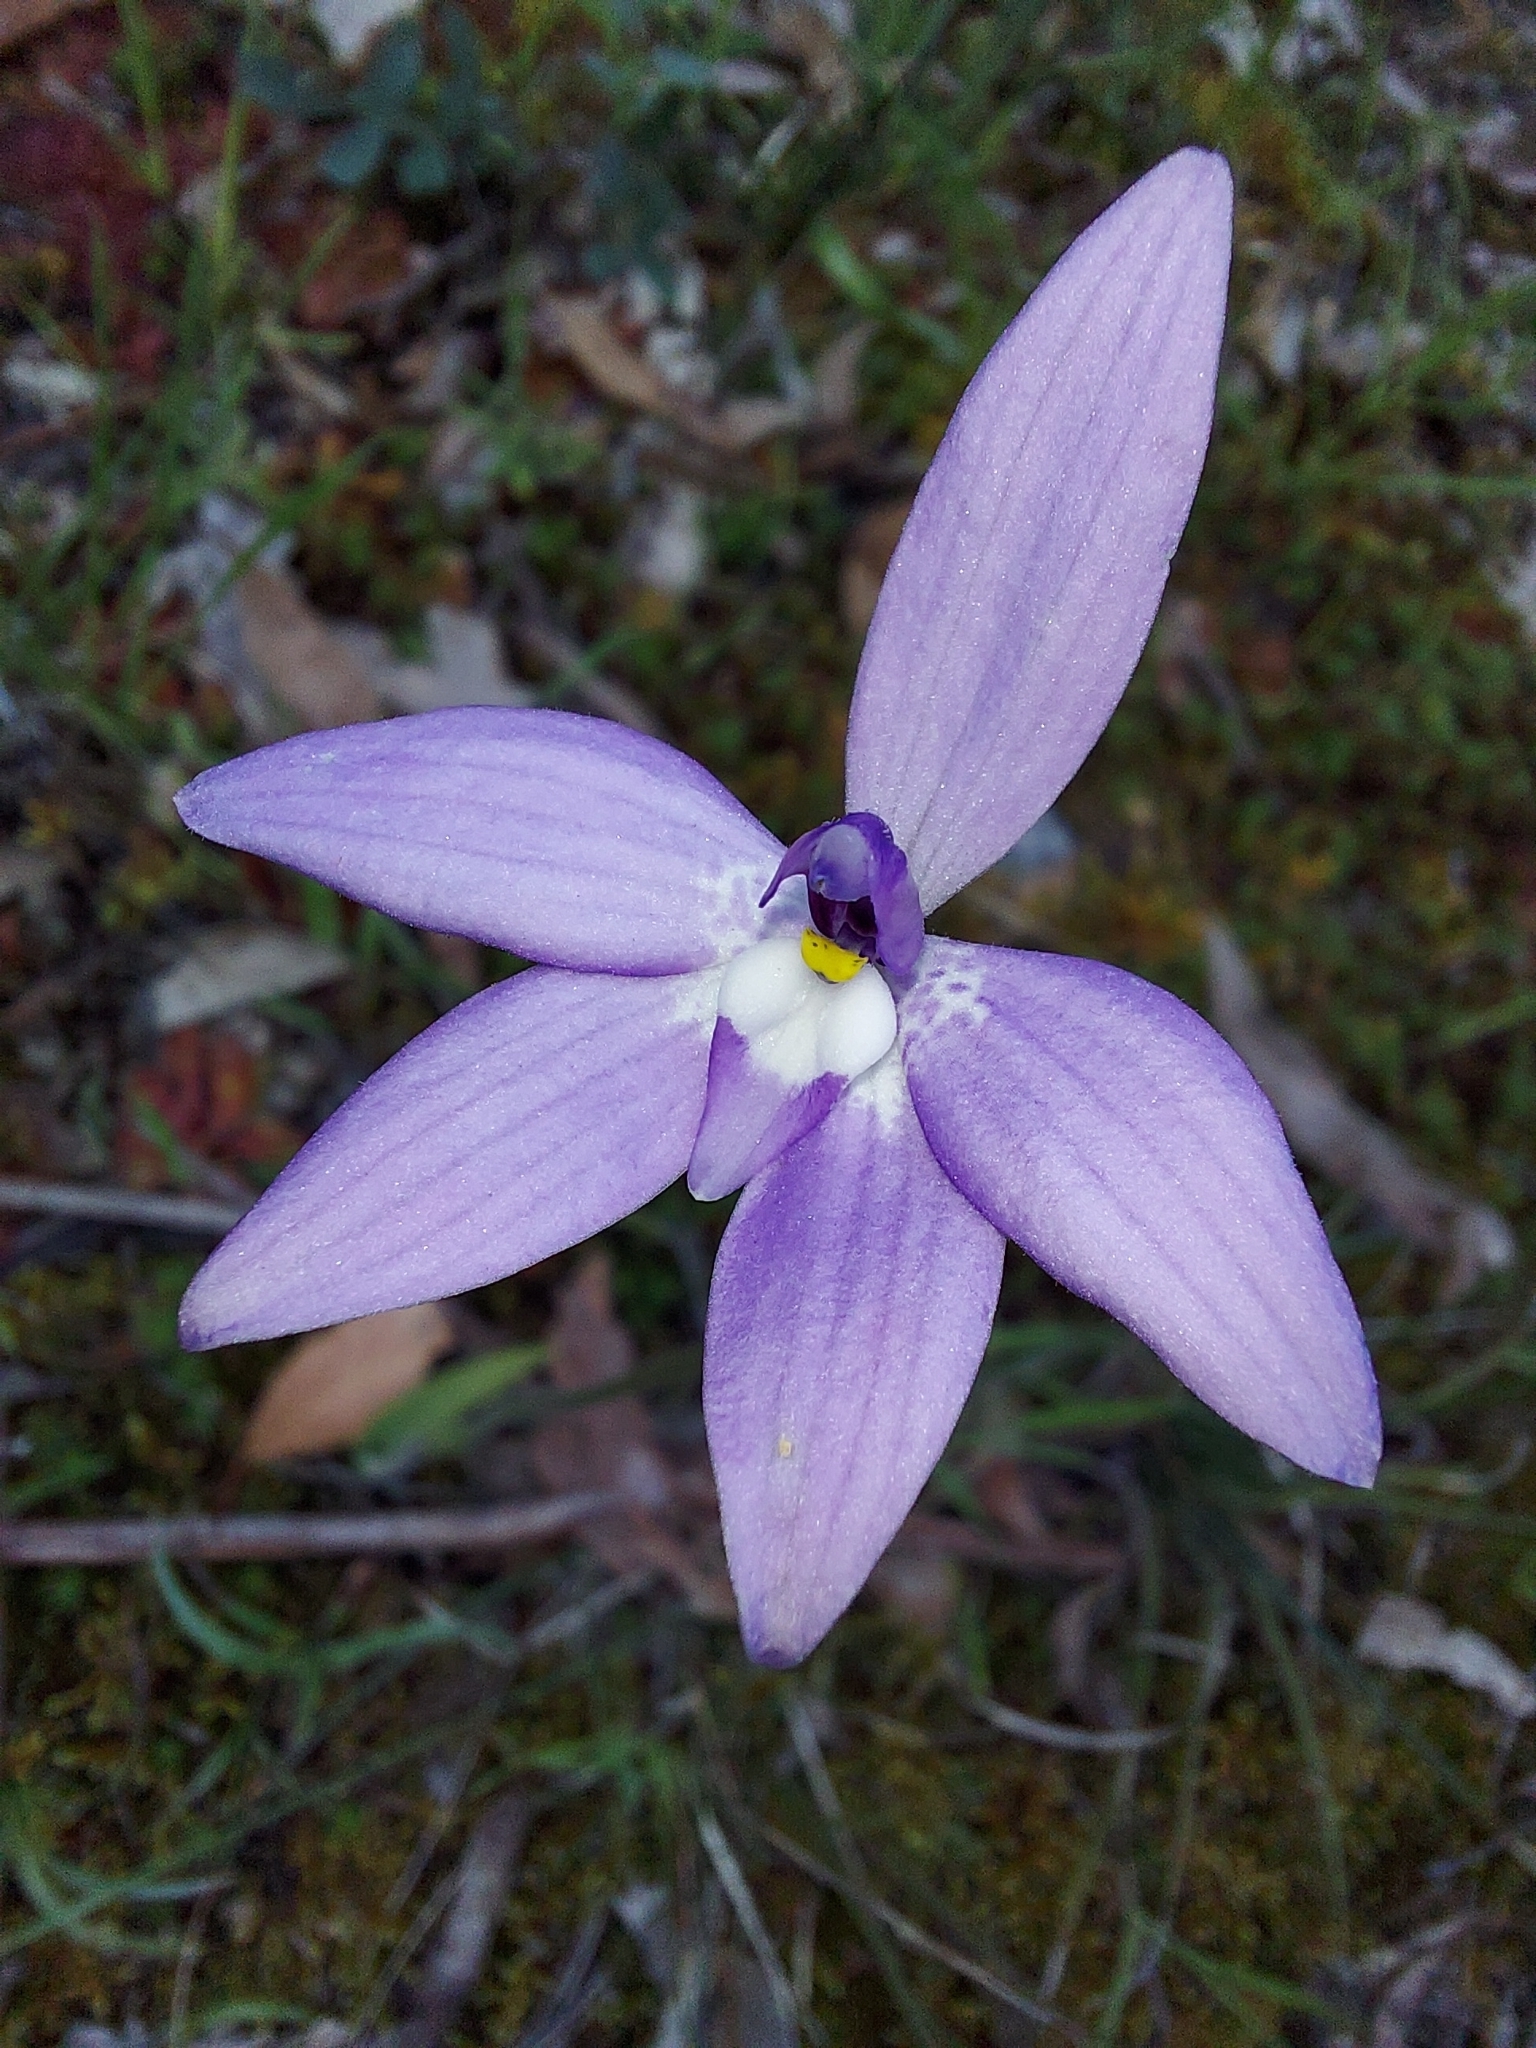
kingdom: Plantae
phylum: Tracheophyta
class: Liliopsida
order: Asparagales
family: Orchidaceae
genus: Caladenia
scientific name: Caladenia major
